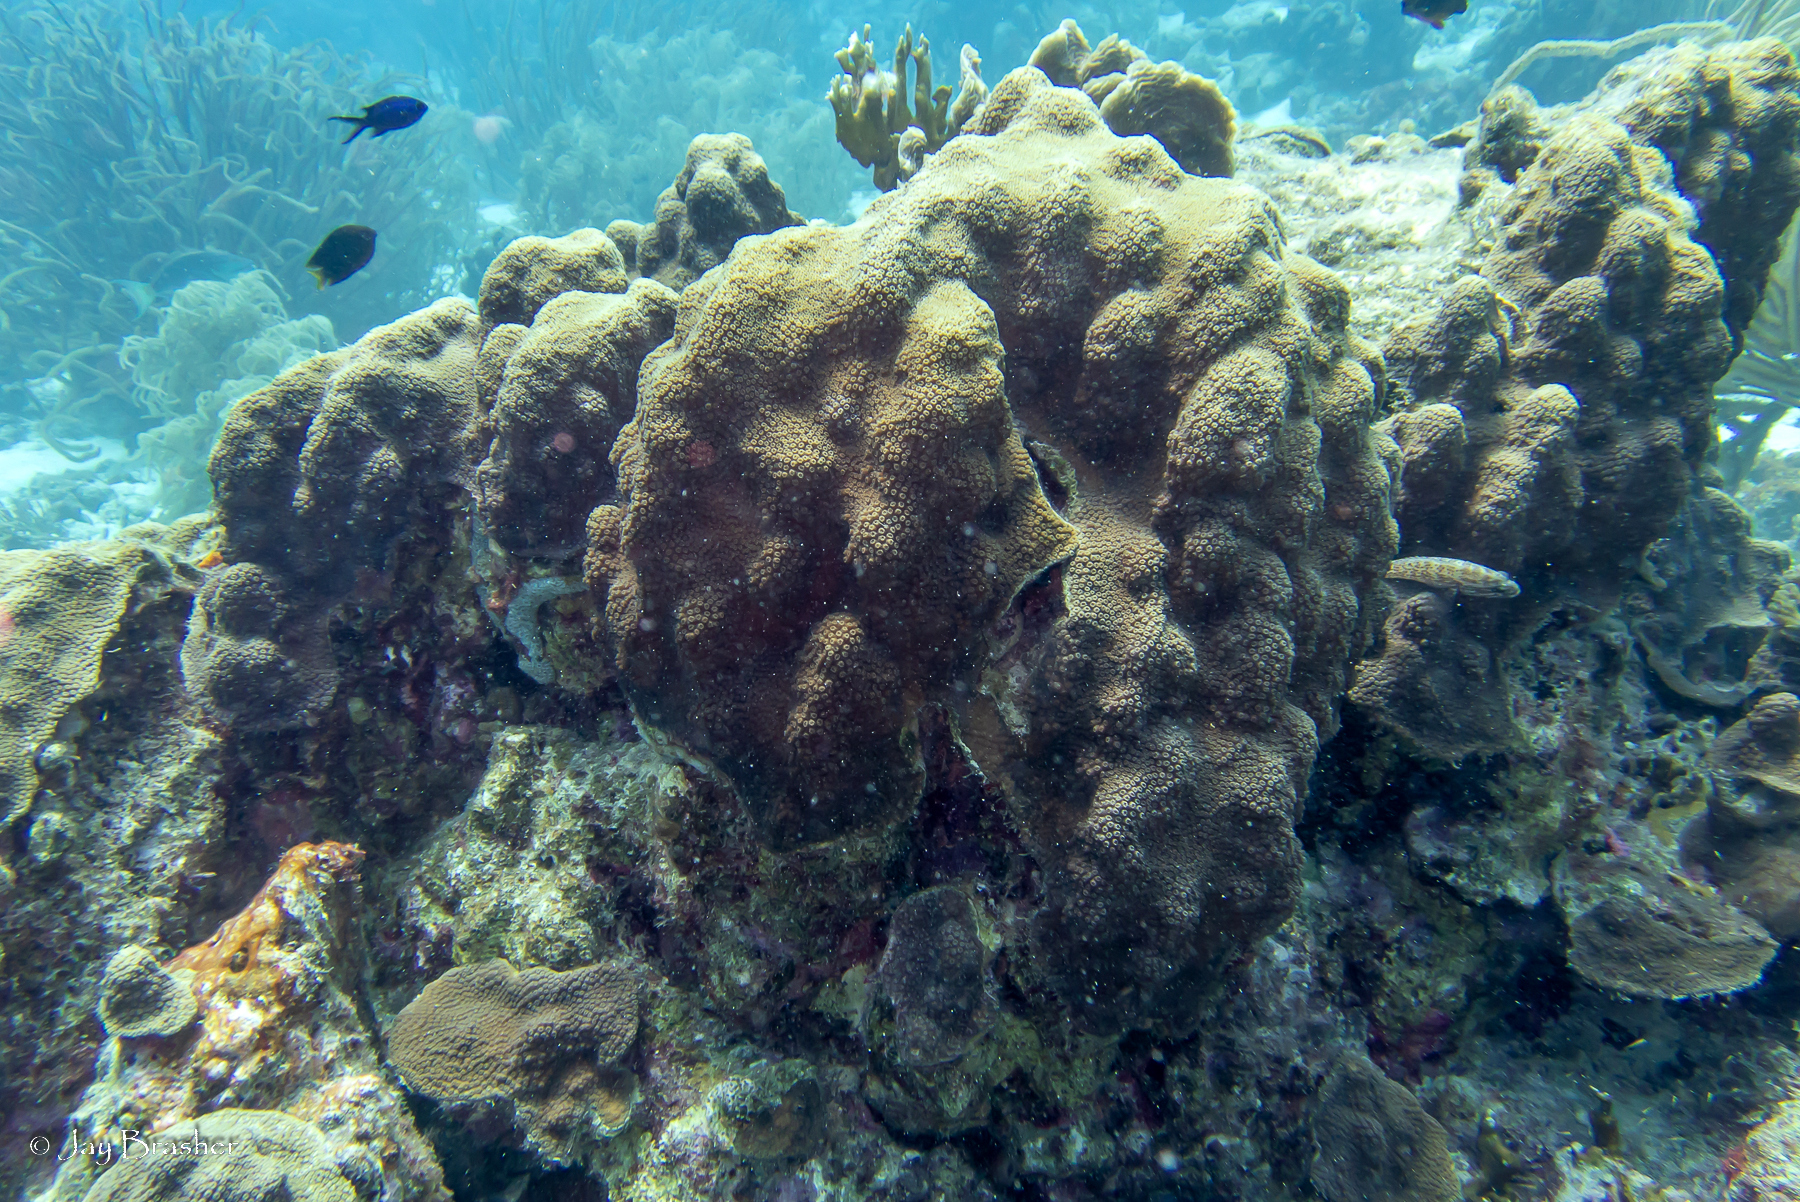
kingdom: Animalia
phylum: Cnidaria
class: Anthozoa
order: Scleractinia
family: Merulinidae
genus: Orbicella
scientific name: Orbicella faveolata
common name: Mountainous star coral
